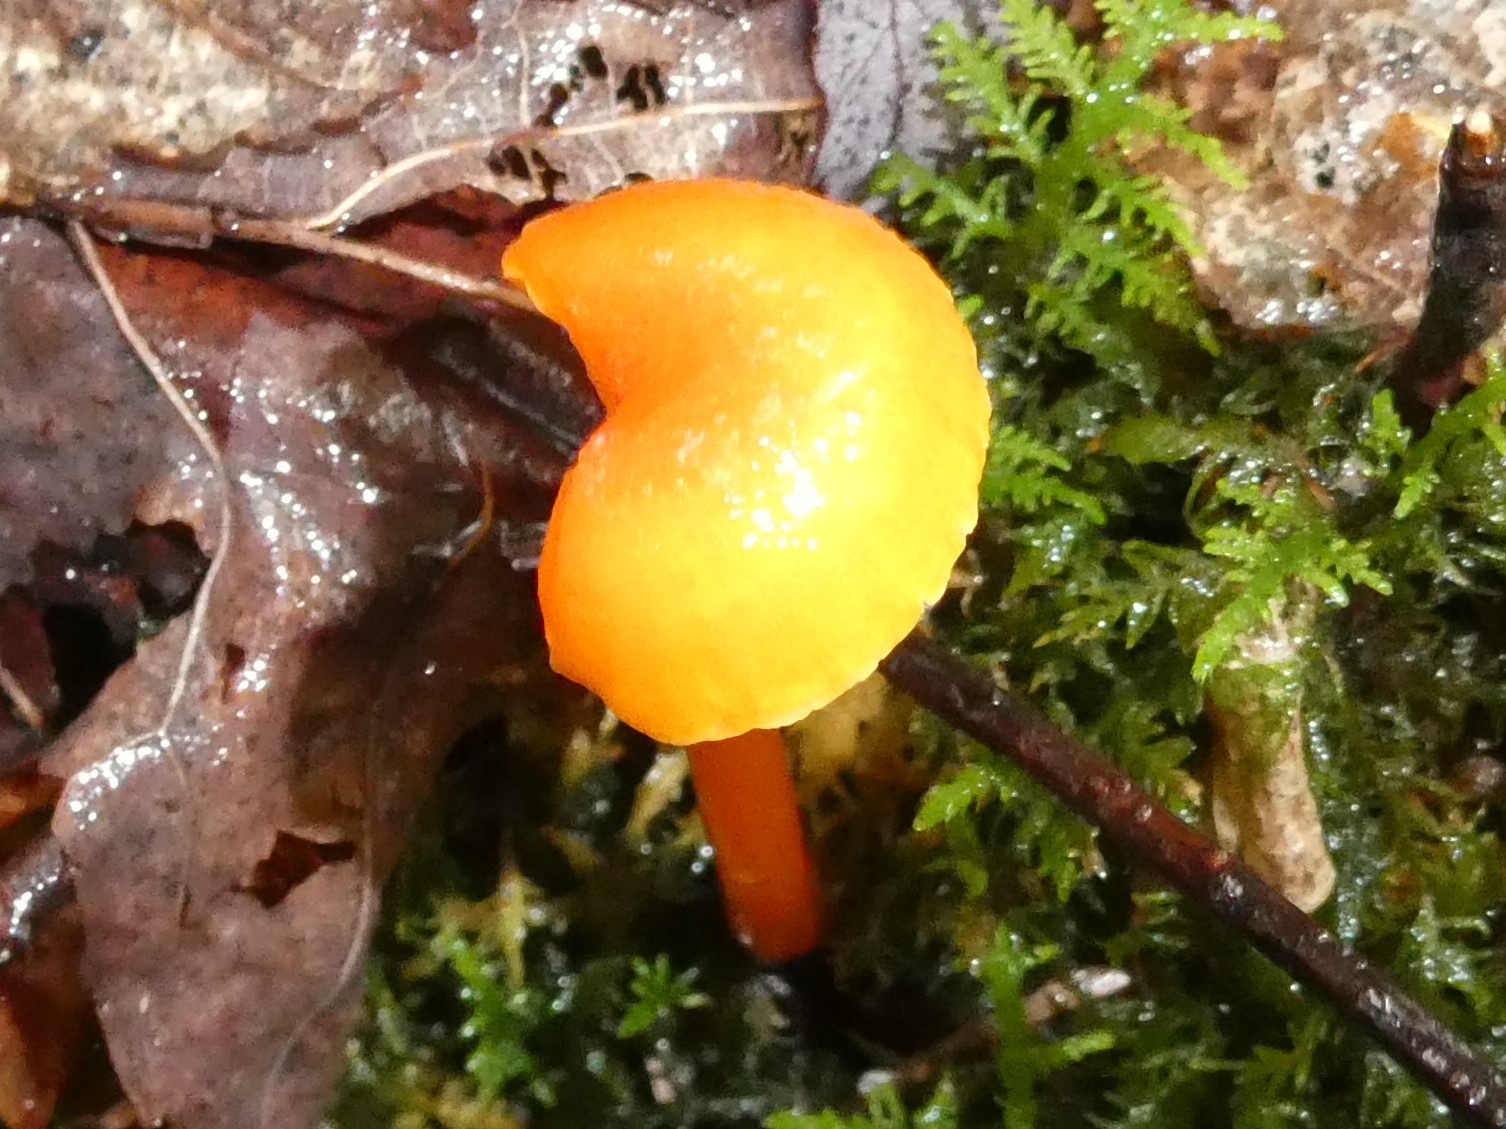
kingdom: Fungi
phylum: Basidiomycota
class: Agaricomycetes
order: Agaricales
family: Hygrophoraceae
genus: Hygrocybe
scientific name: Hygrocybe cantharellus
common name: Goblet waxcap
